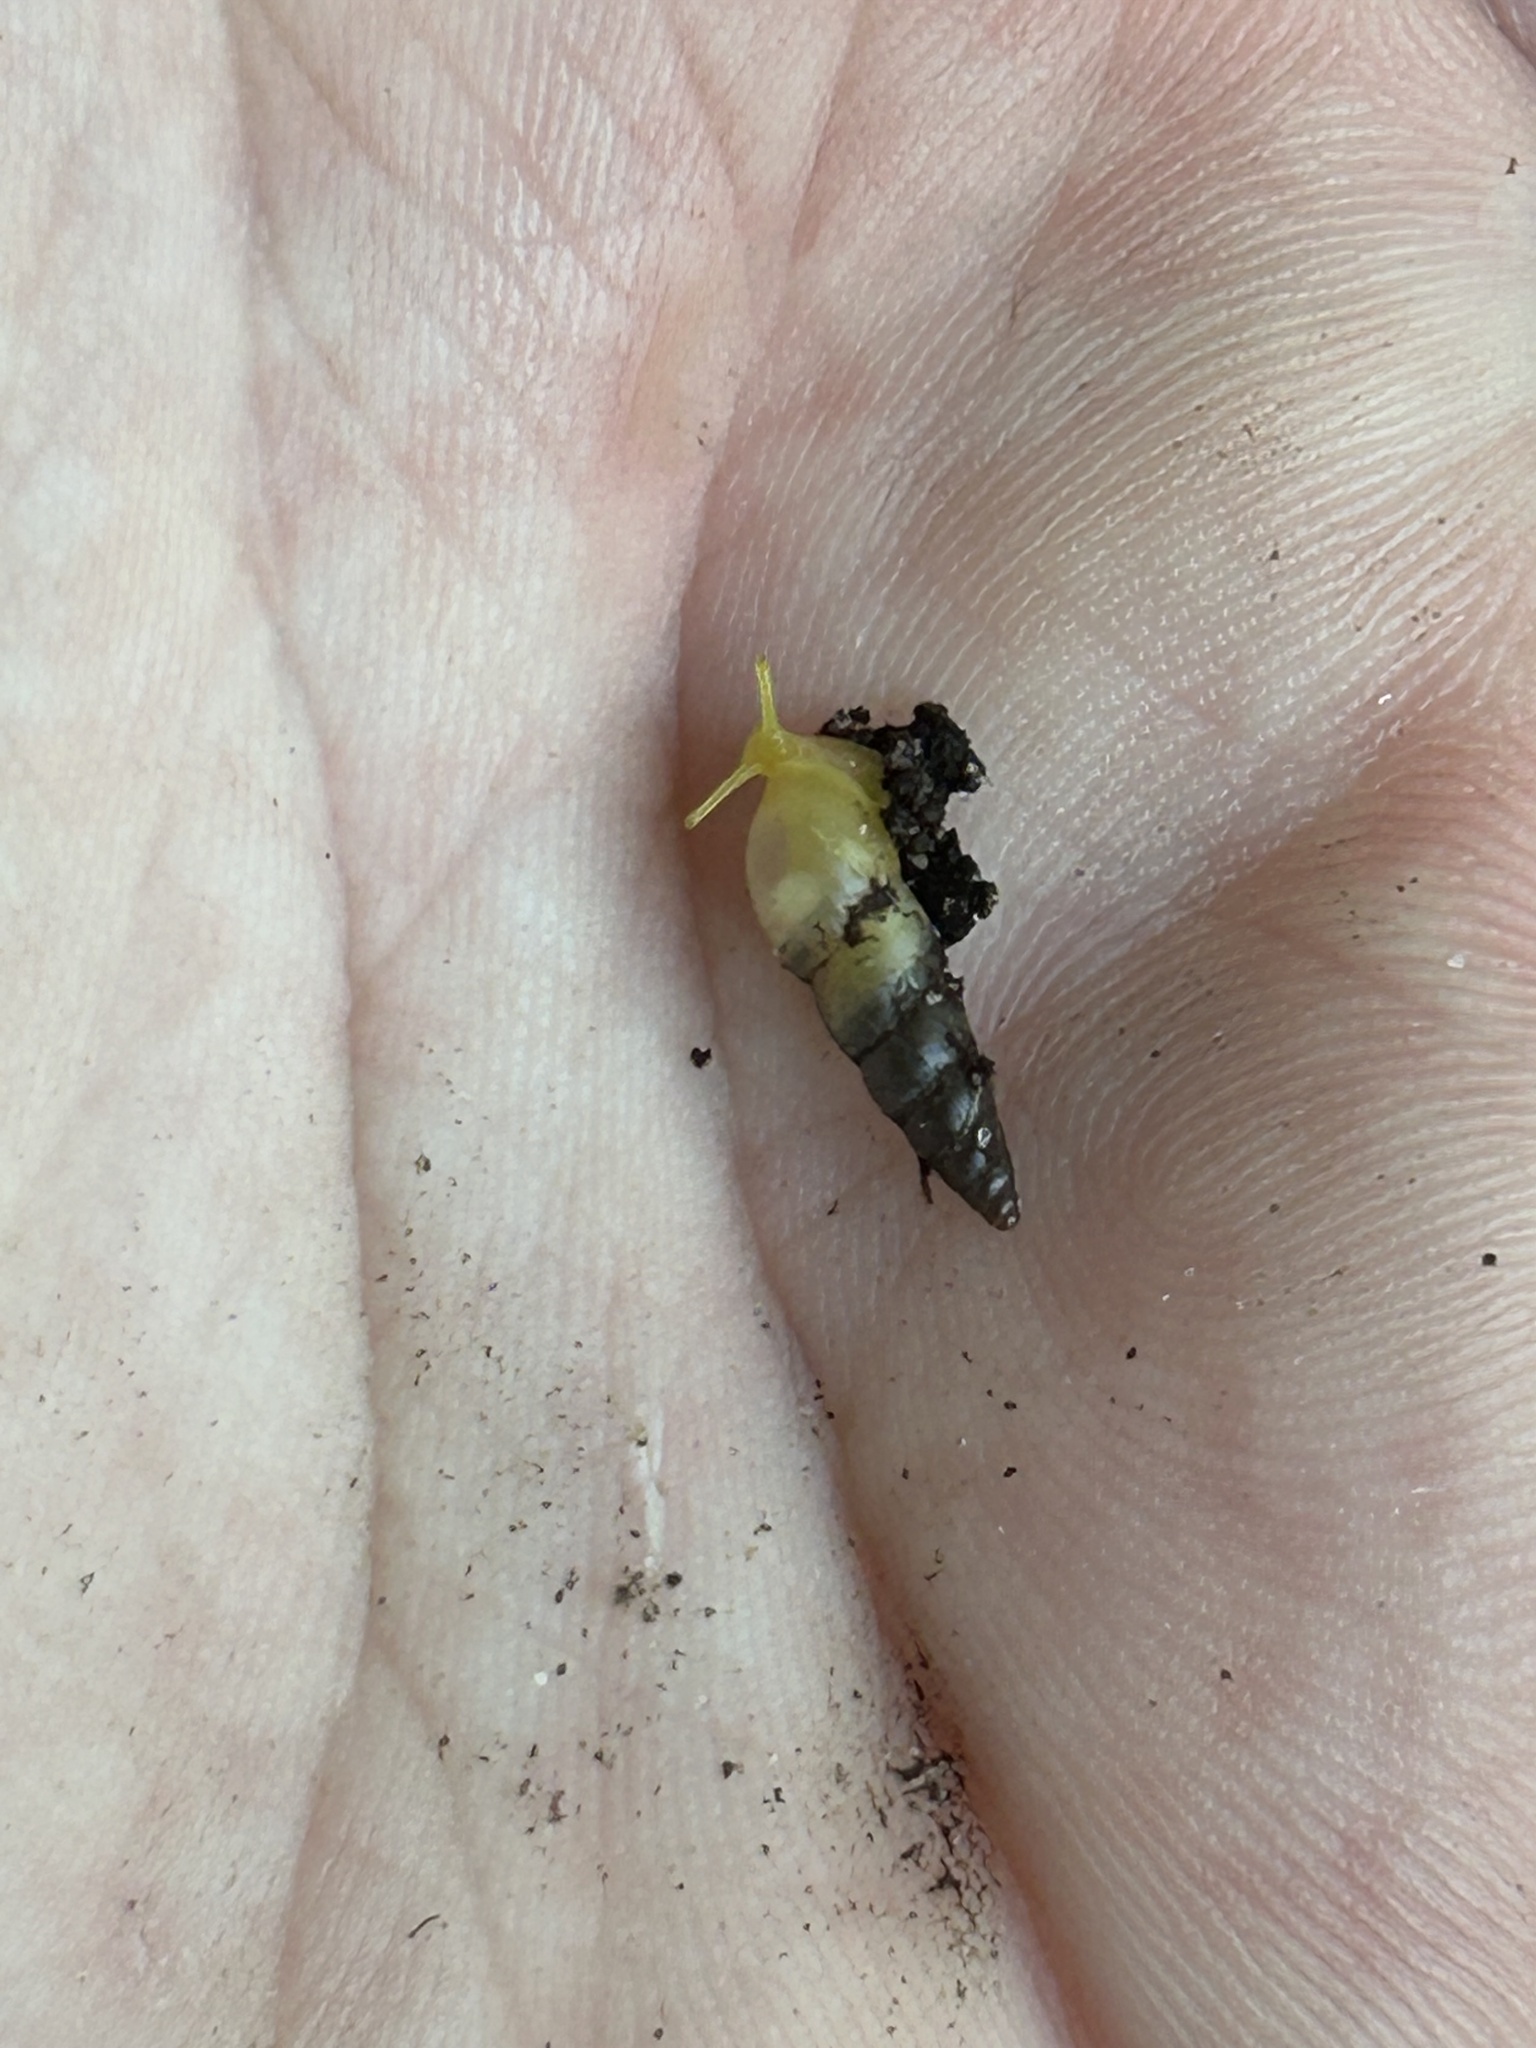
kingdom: Animalia
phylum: Mollusca
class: Gastropoda
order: Stylommatophora
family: Achatinidae
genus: Allopeas
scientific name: Allopeas gracile
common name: Graceful awlsnail
